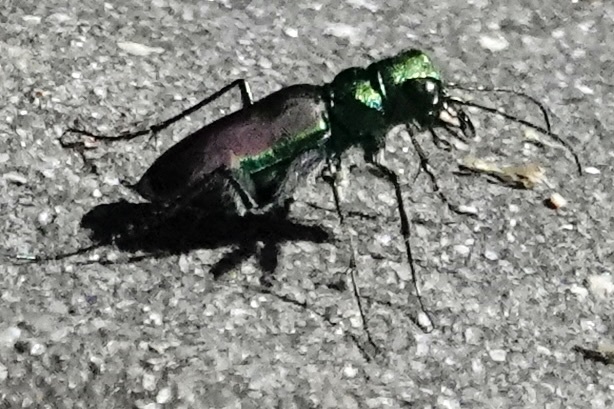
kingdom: Animalia
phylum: Arthropoda
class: Insecta
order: Coleoptera
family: Carabidae
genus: Cicindela
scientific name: Cicindela splendida
